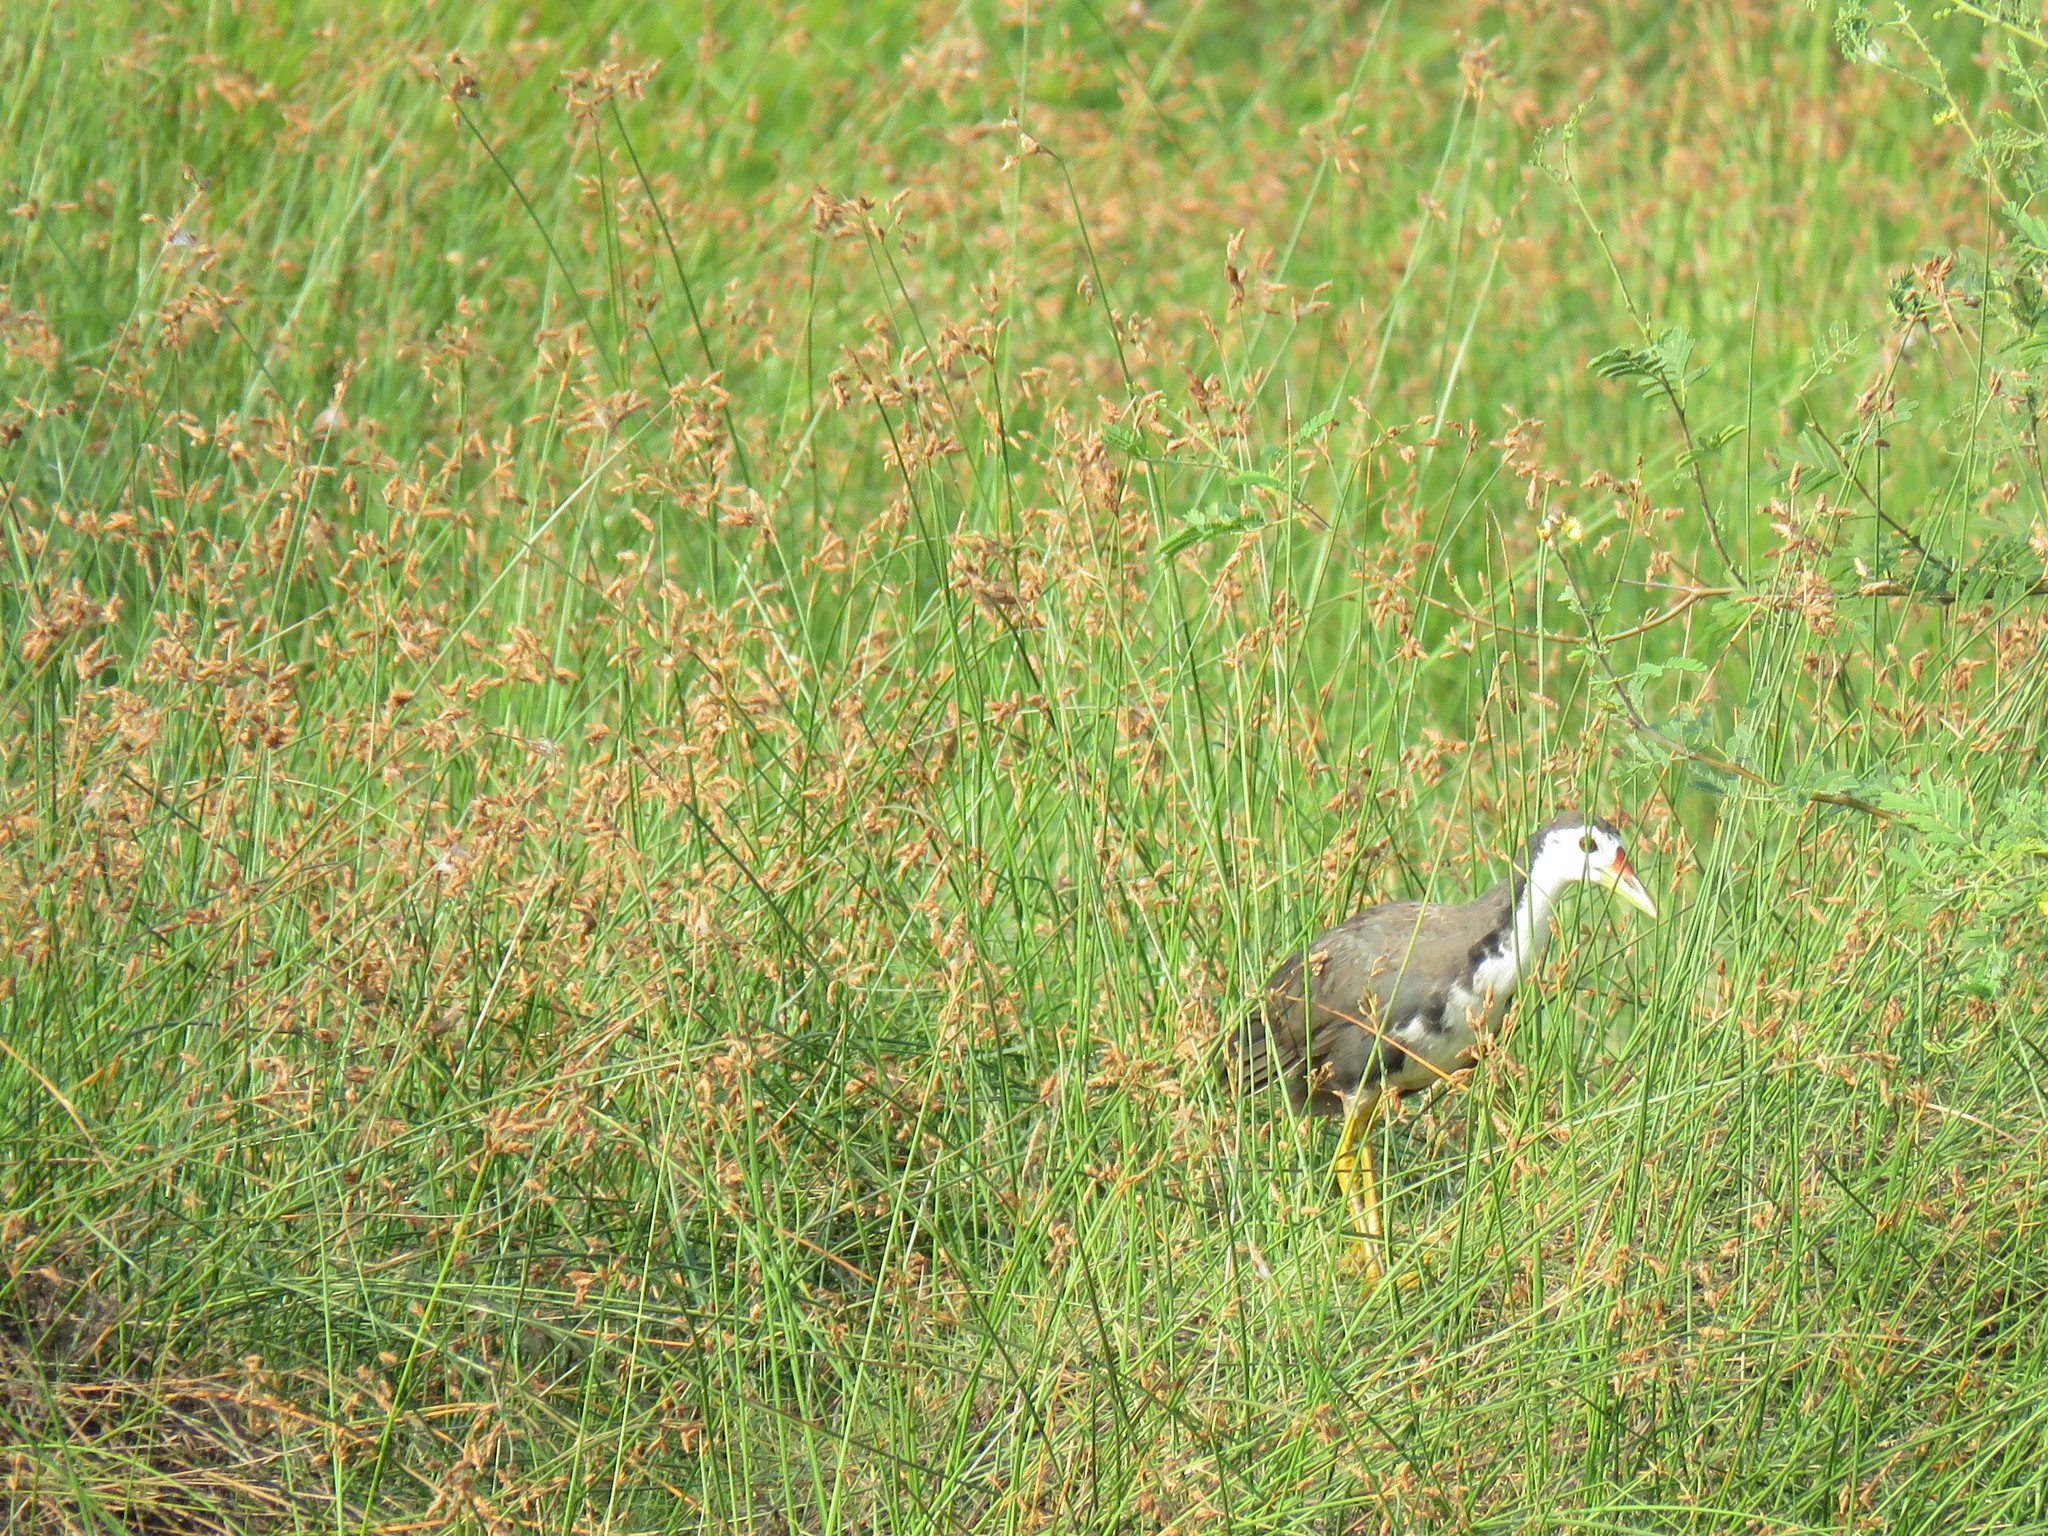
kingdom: Animalia
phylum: Chordata
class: Aves
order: Gruiformes
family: Rallidae
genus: Amaurornis
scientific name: Amaurornis phoenicurus
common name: White-breasted waterhen
